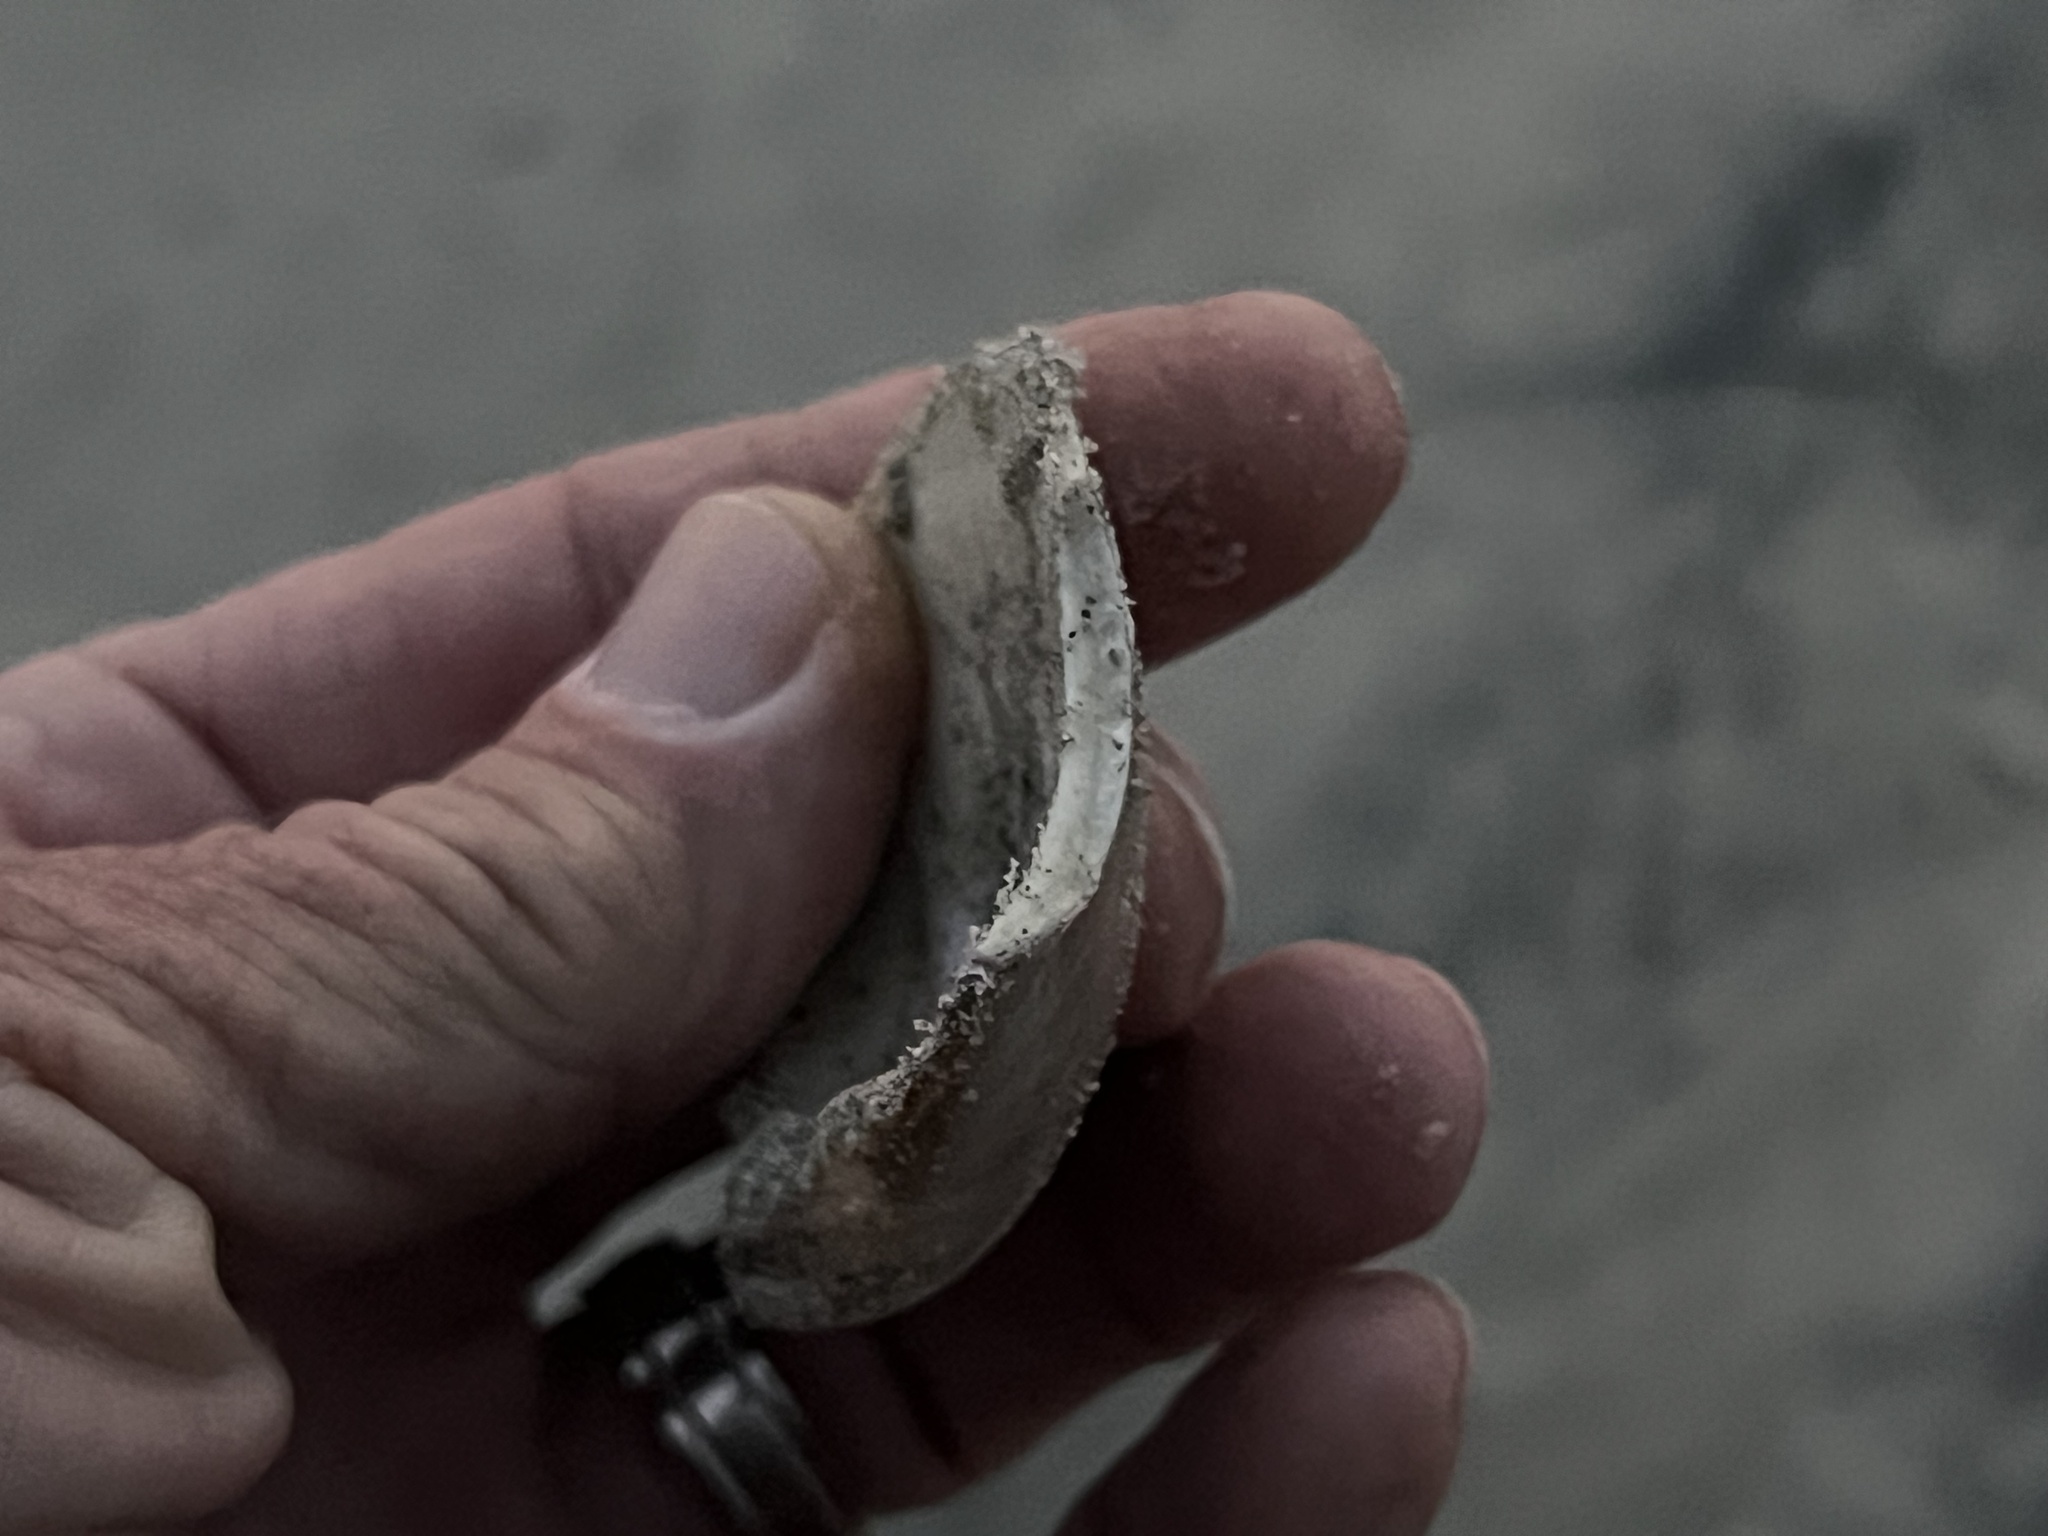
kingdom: Animalia
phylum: Mollusca
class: Bivalvia
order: Venerida
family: Veneridae
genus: Tivela
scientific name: Tivela stultorum
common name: Pismo clam
